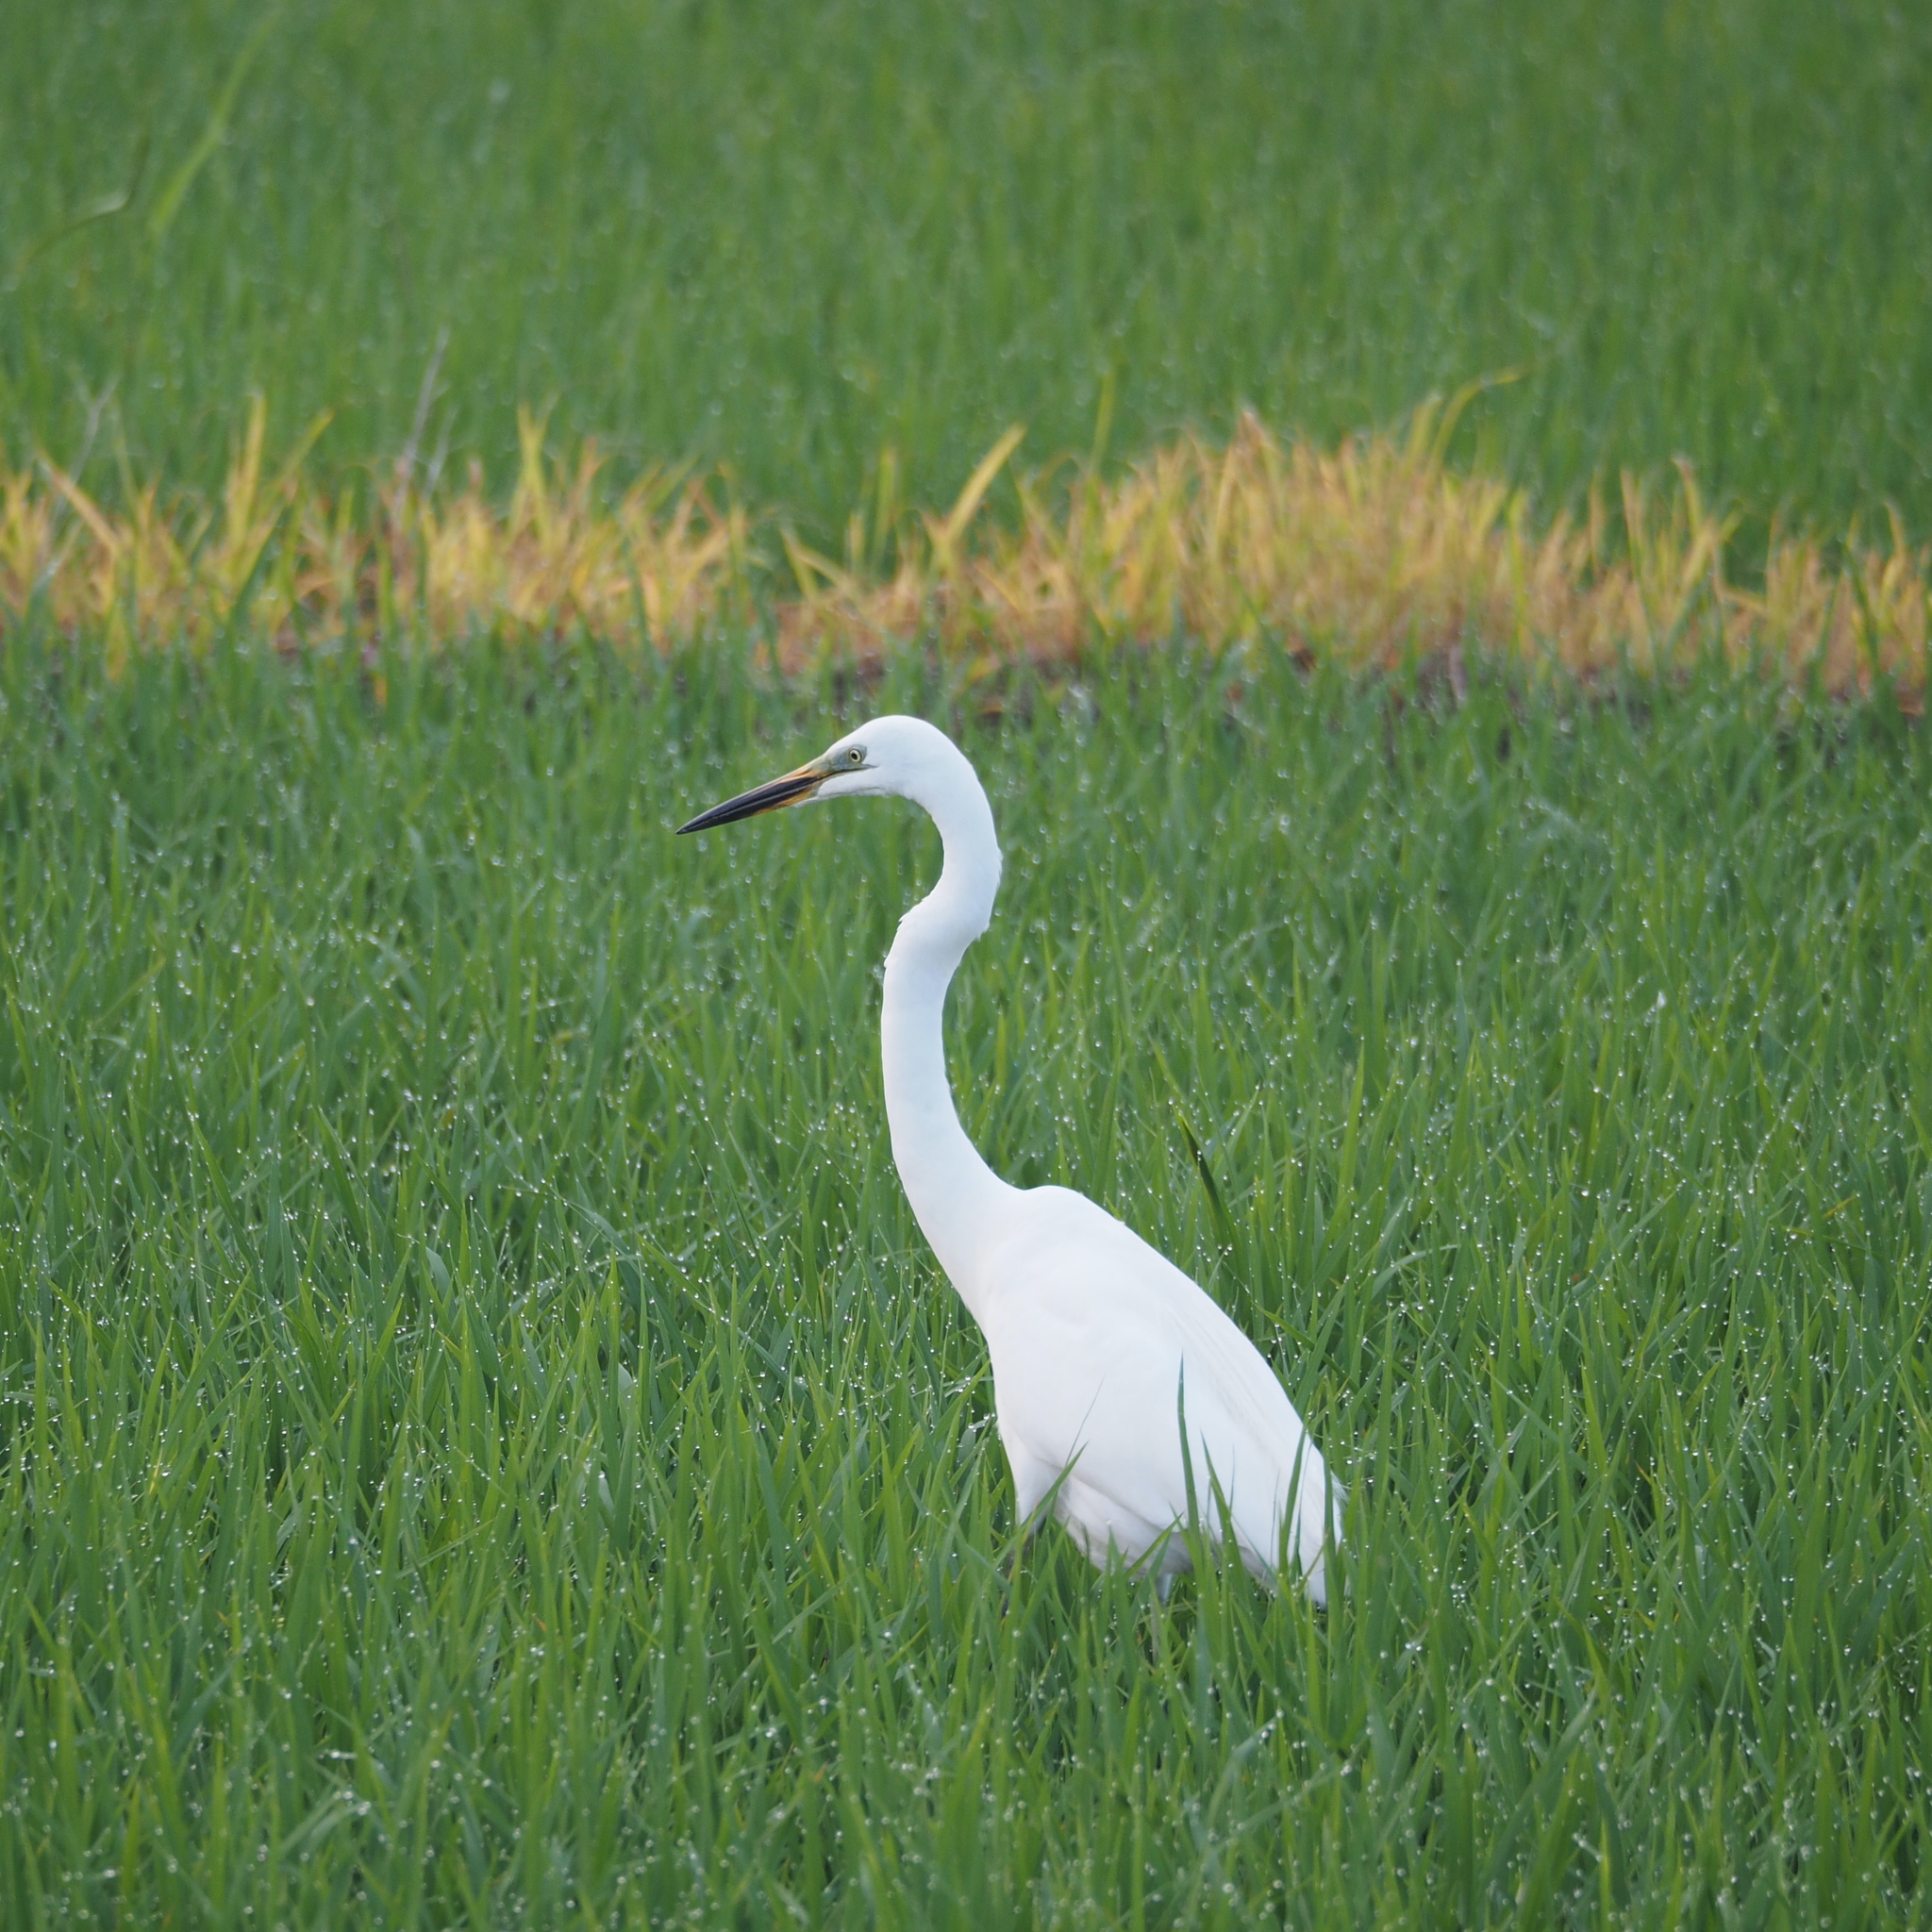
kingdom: Animalia
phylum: Chordata
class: Aves
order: Pelecaniformes
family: Ardeidae
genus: Ardea
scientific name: Ardea alba
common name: Great egret
